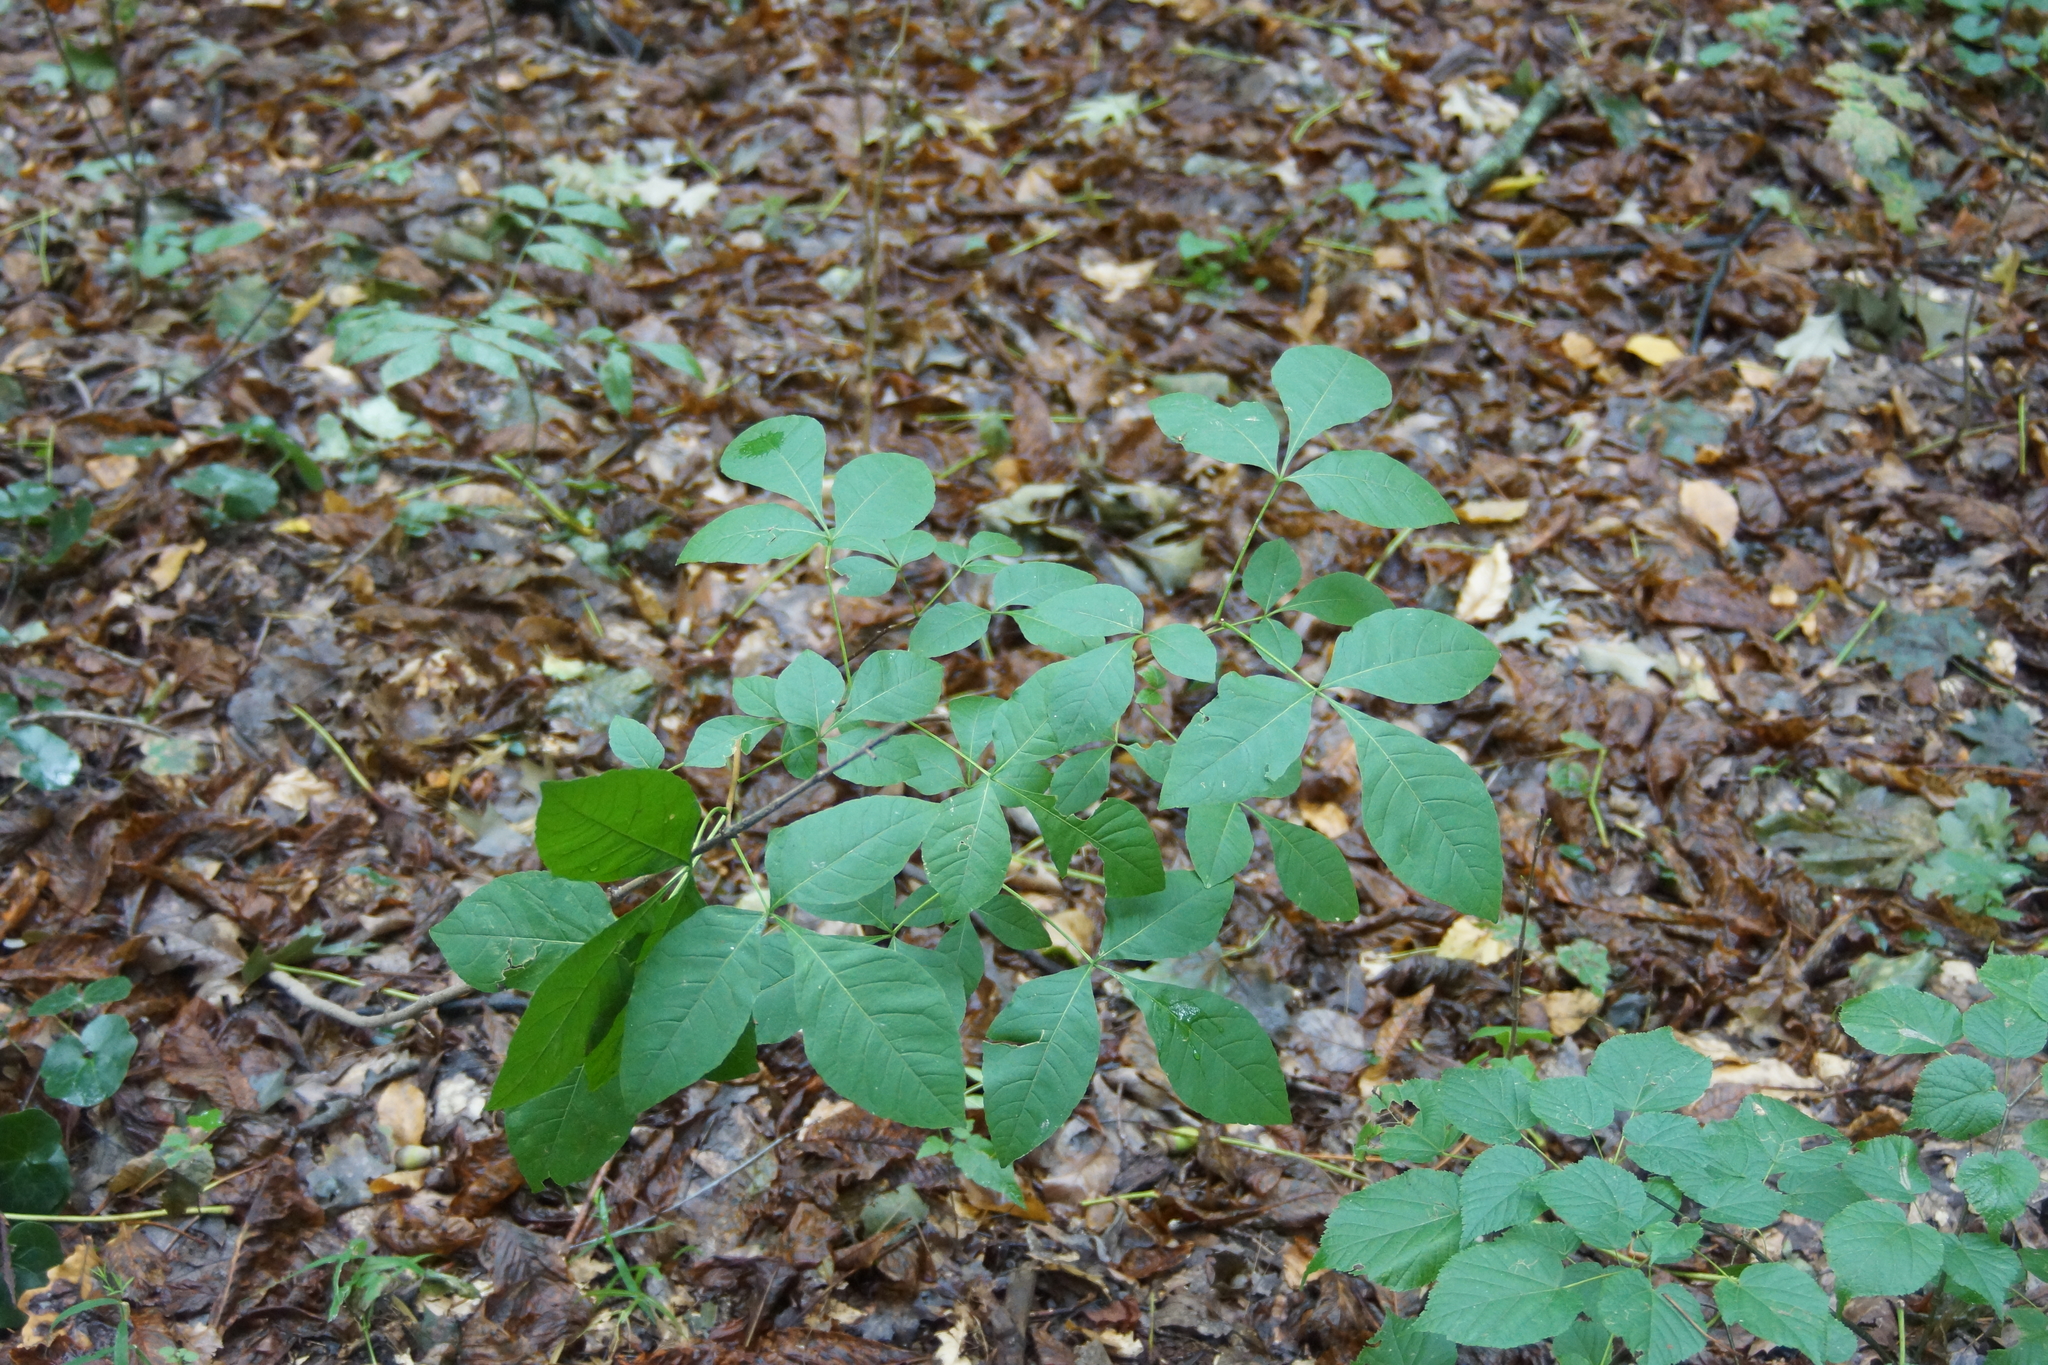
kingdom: Plantae
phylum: Tracheophyta
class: Magnoliopsida
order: Sapindales
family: Rutaceae
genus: Ptelea
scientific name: Ptelea trifoliata
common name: Common hop-tree
